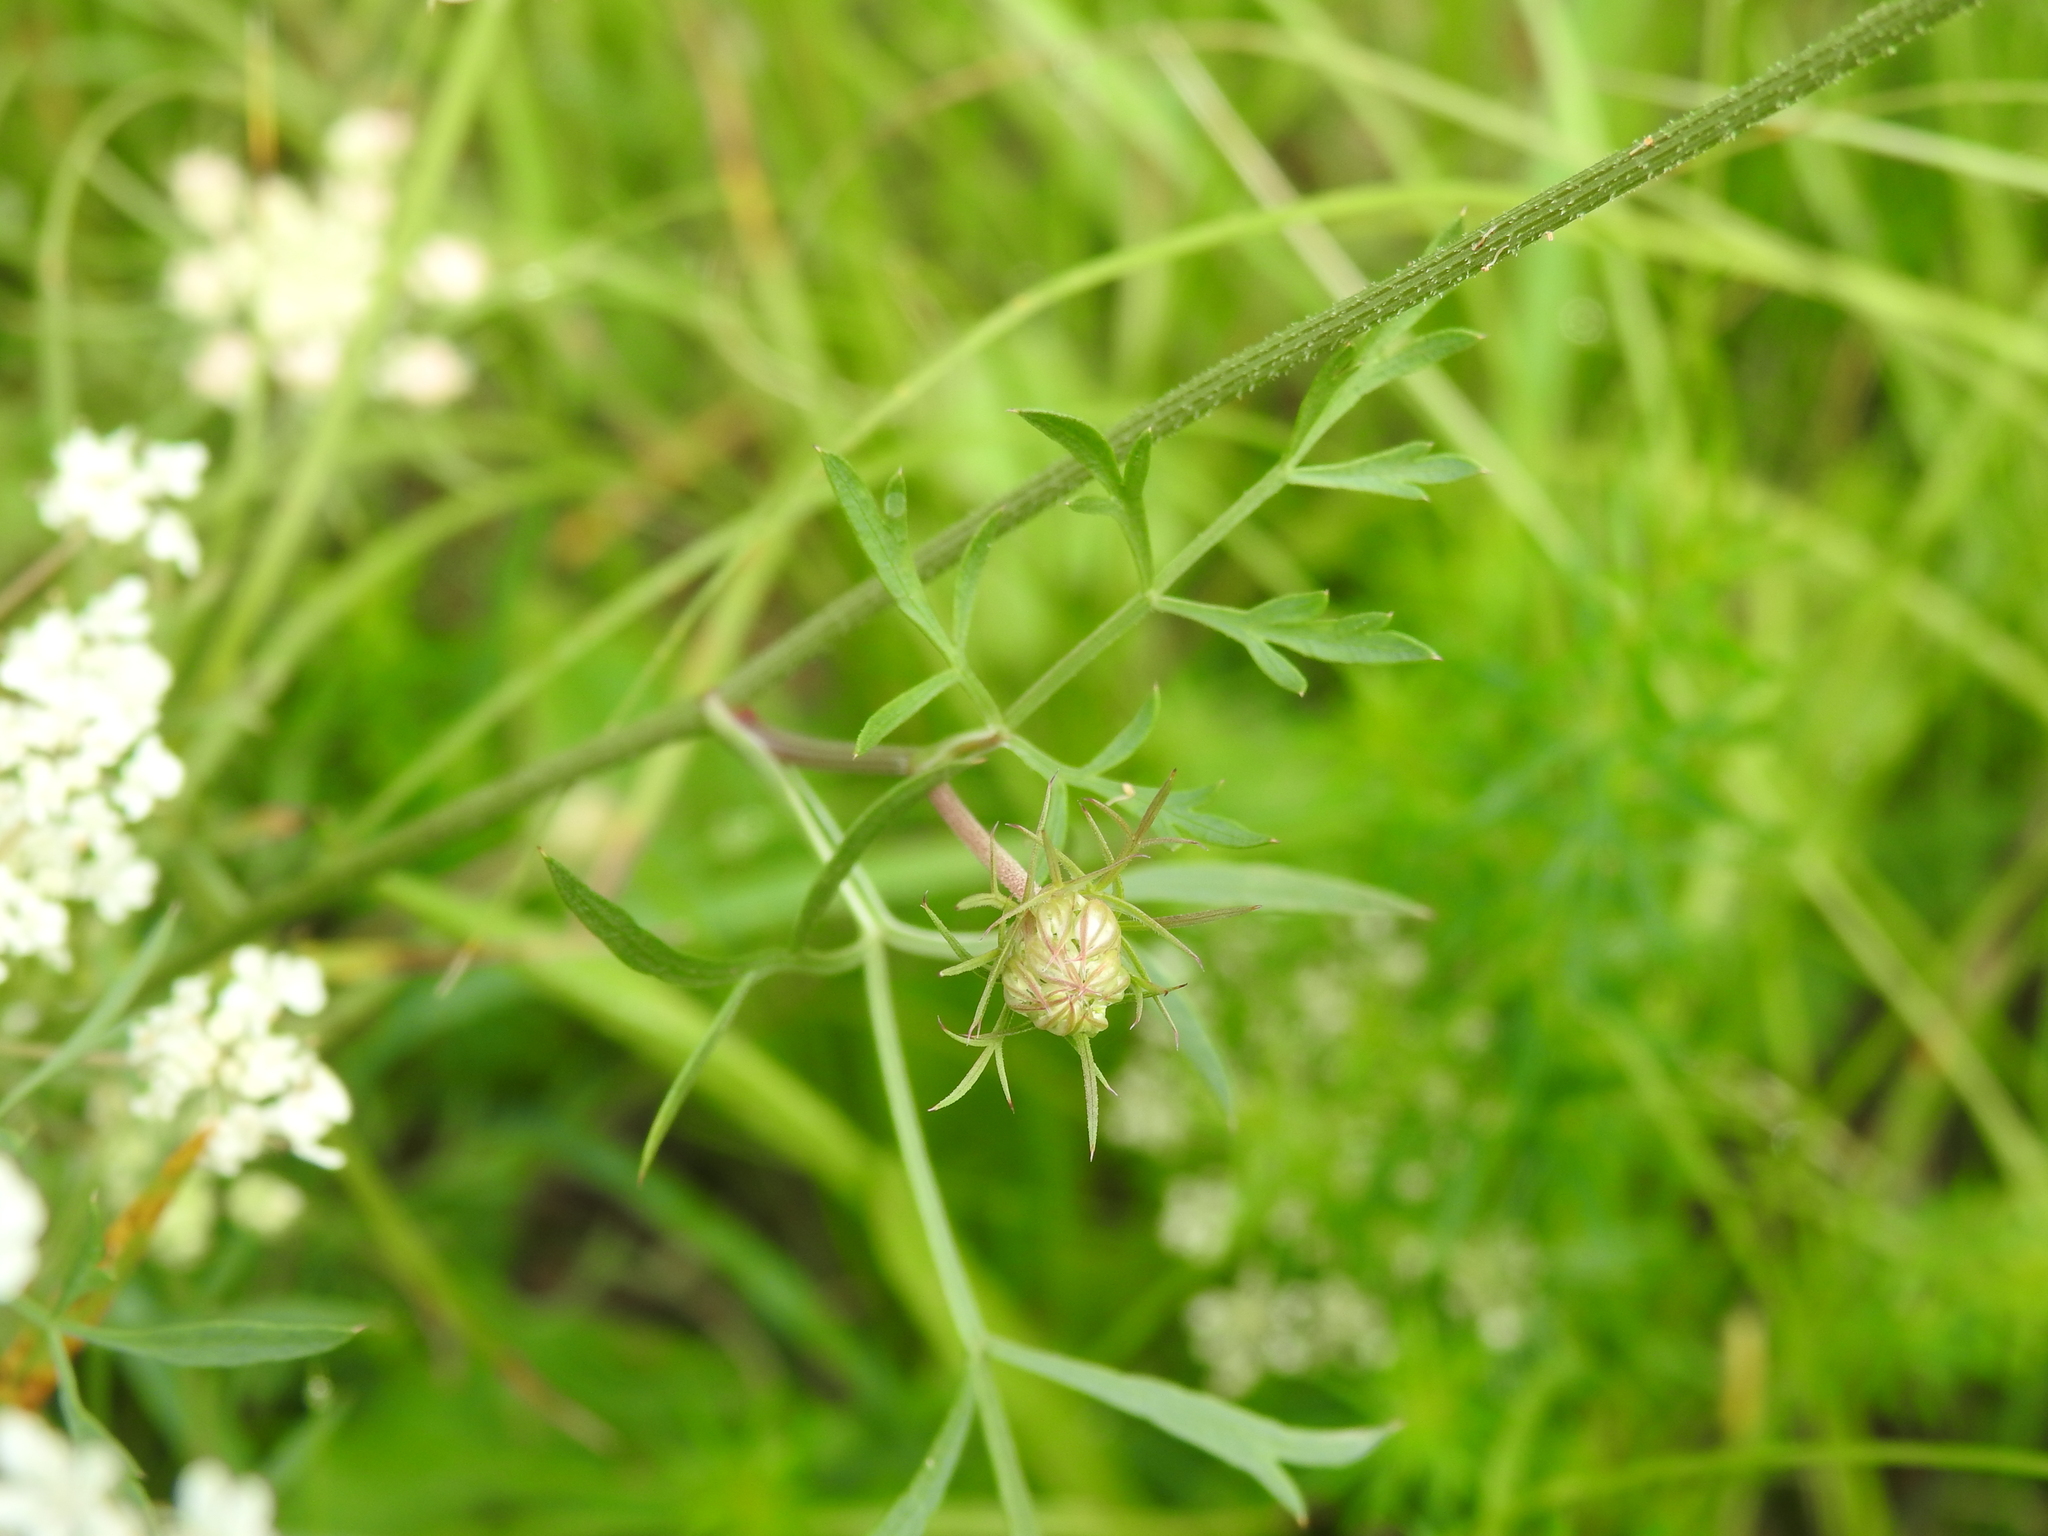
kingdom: Plantae
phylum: Tracheophyta
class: Magnoliopsida
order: Apiales
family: Apiaceae
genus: Daucus
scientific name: Daucus carota
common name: Wild carrot
